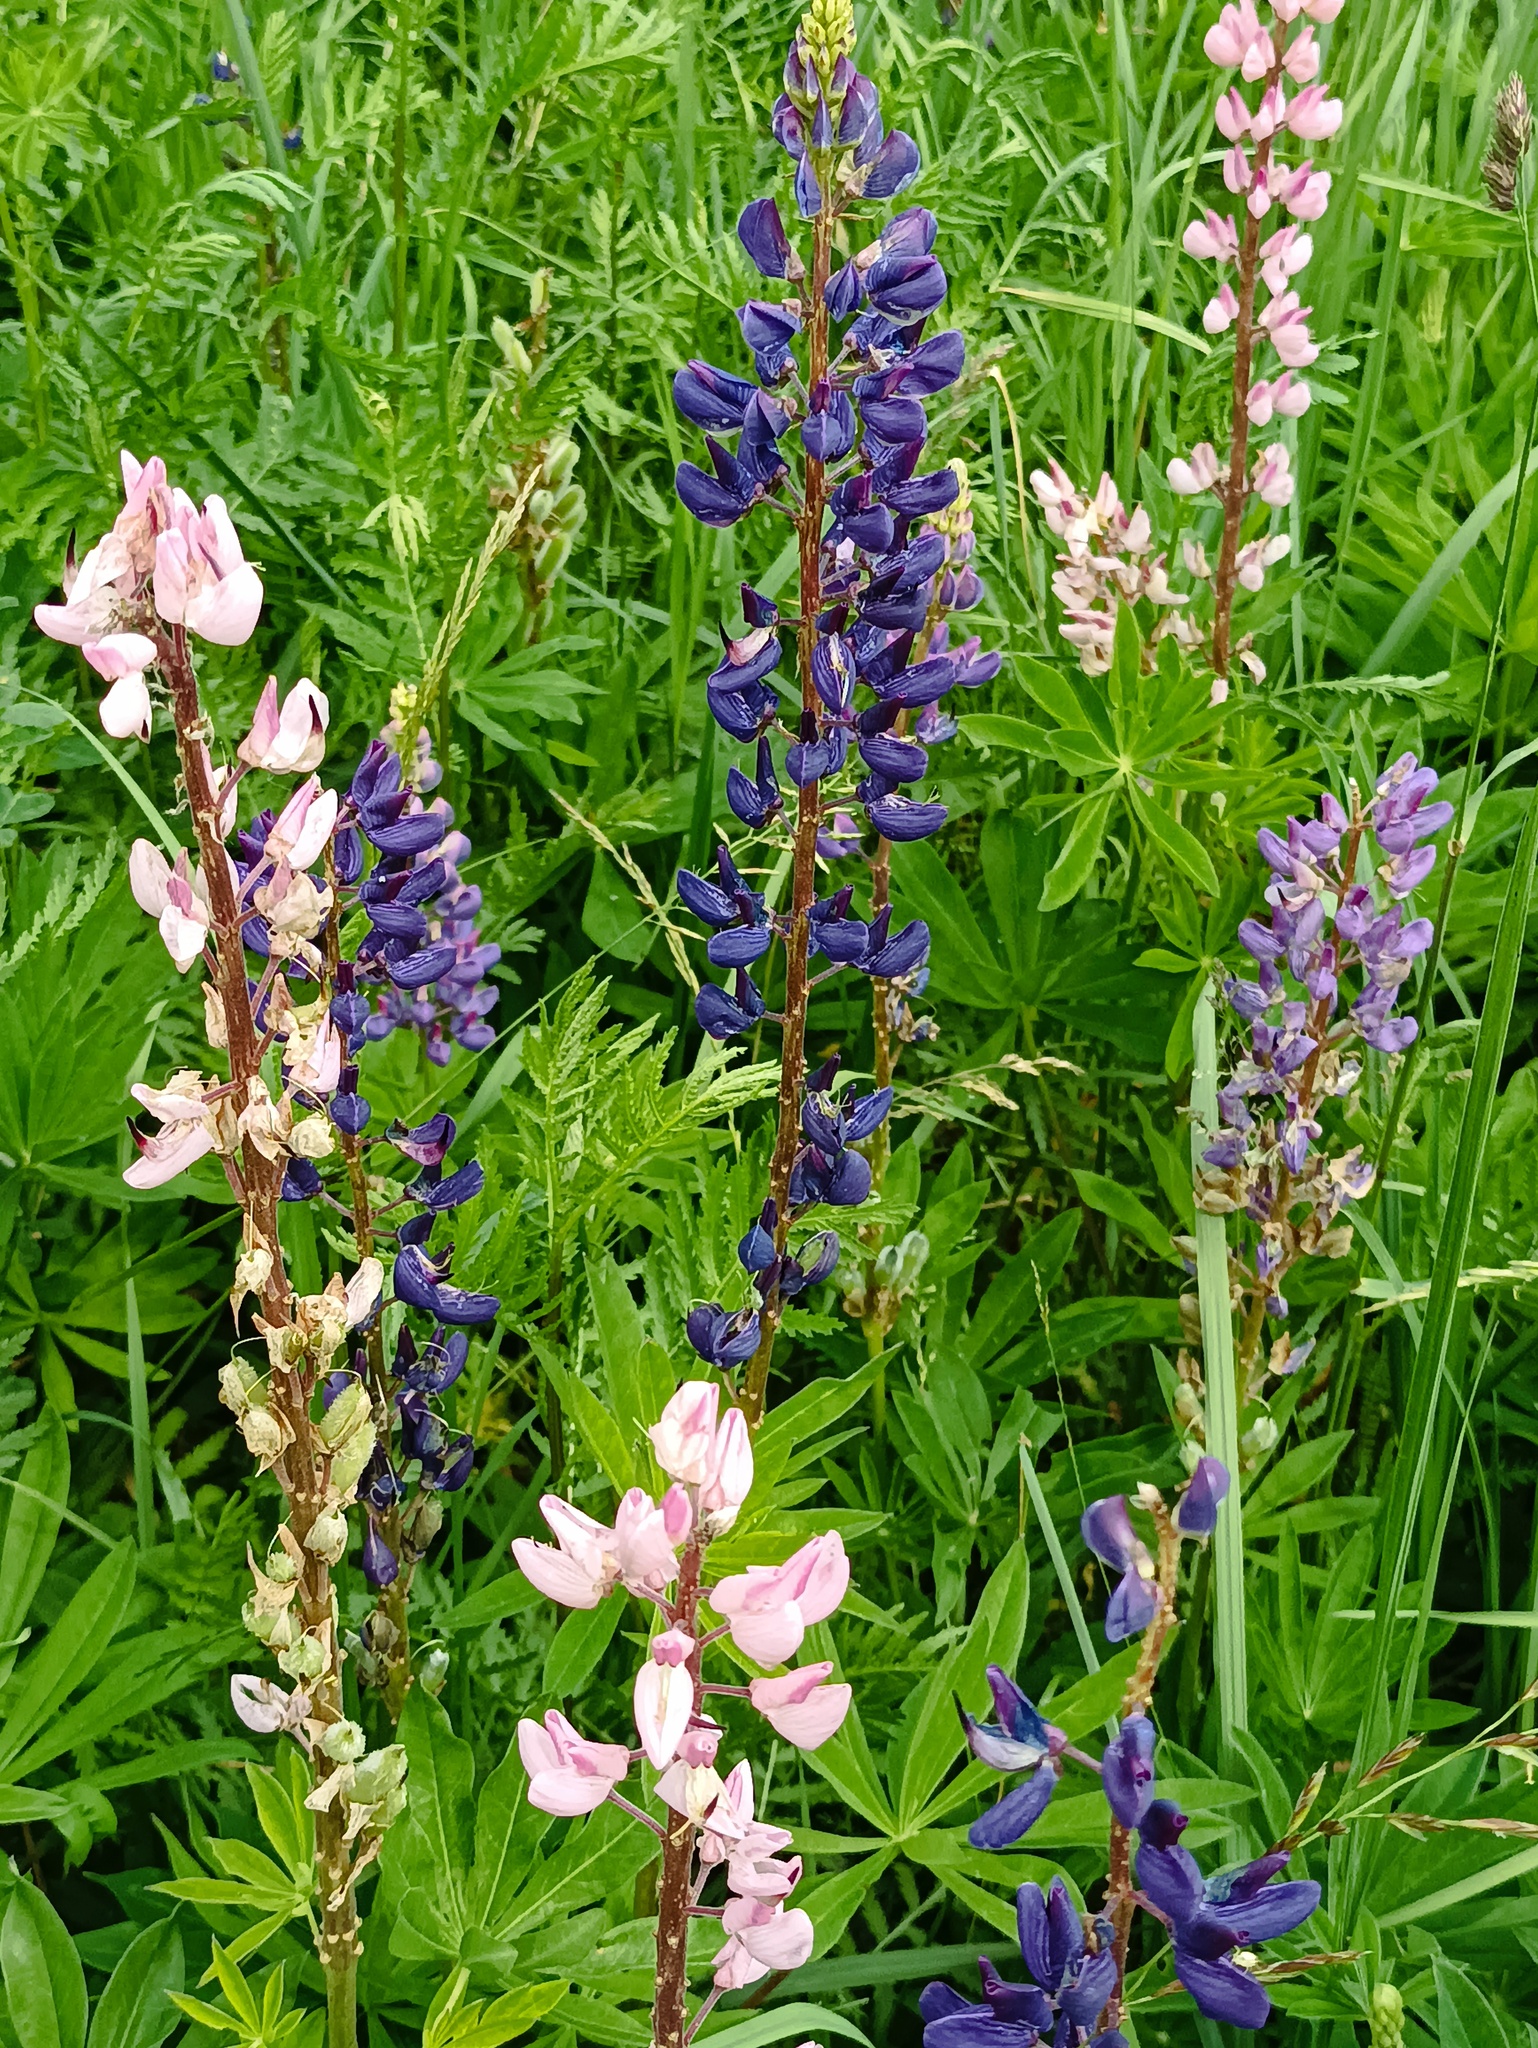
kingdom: Plantae
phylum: Tracheophyta
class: Magnoliopsida
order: Fabales
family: Fabaceae
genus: Lupinus
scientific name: Lupinus polyphyllus
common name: Garden lupin
